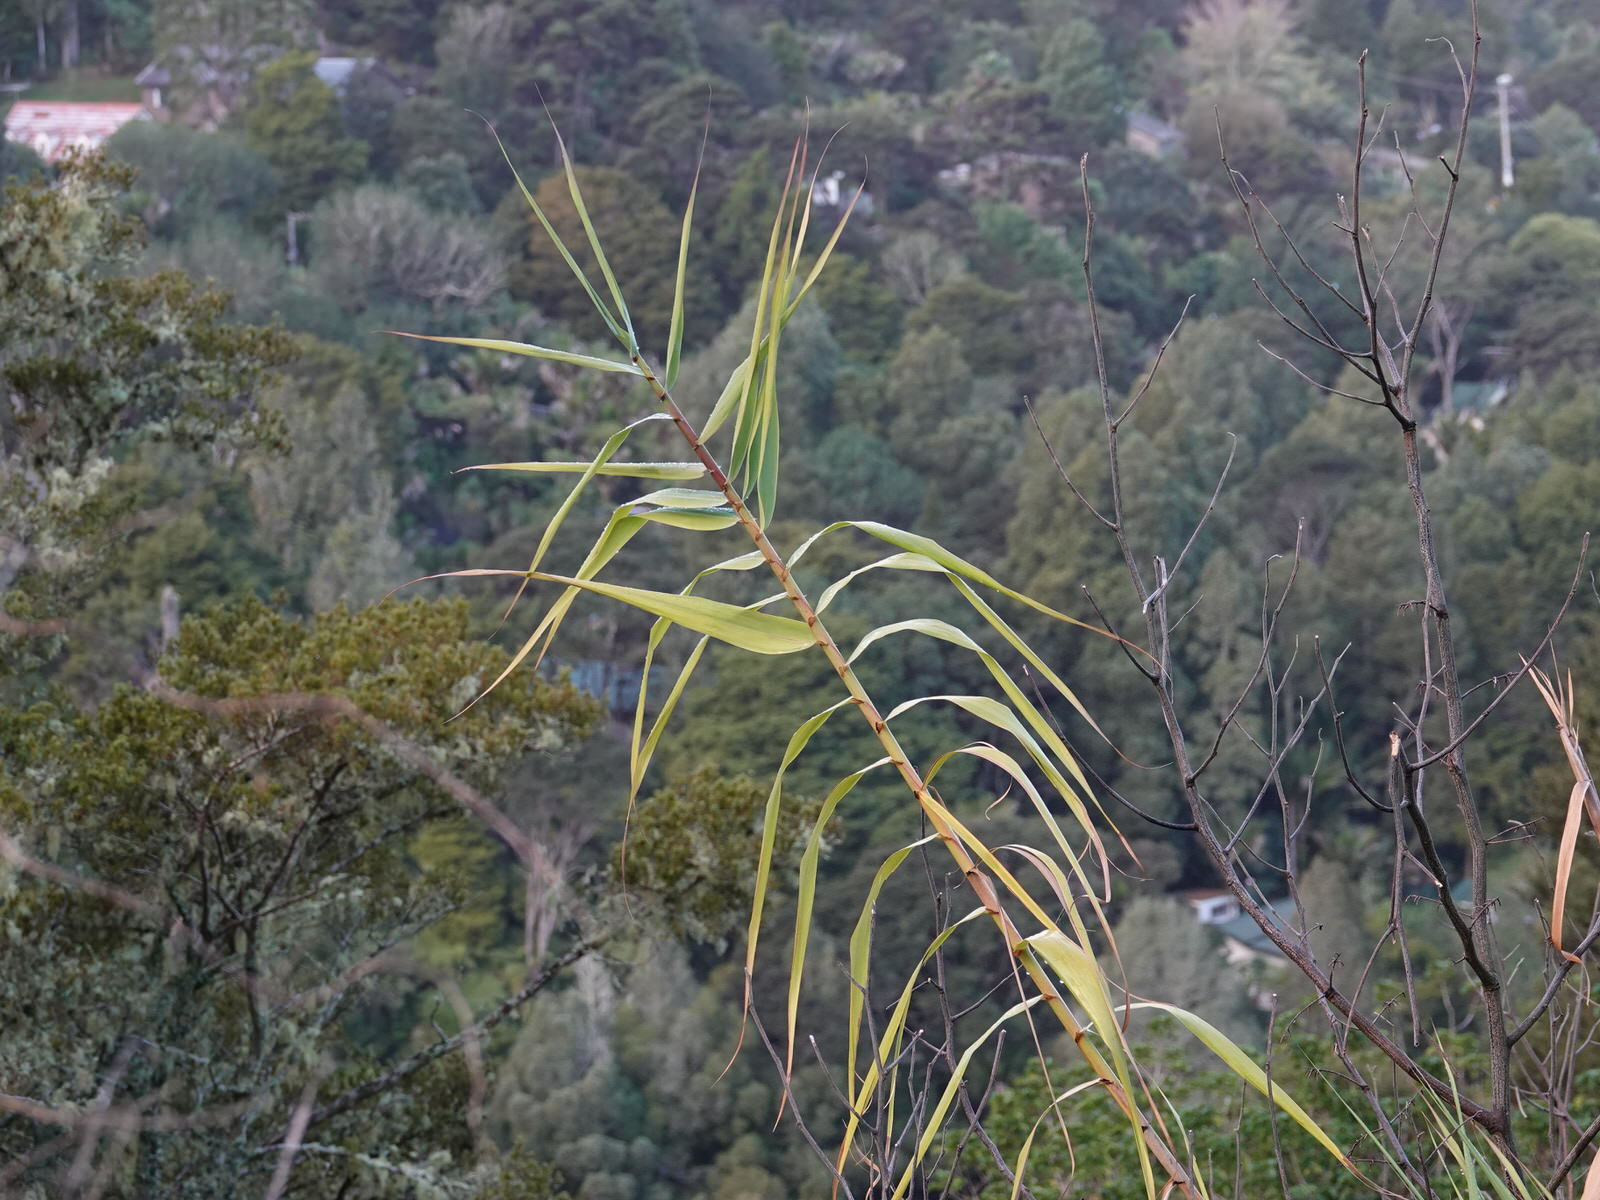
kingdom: Plantae
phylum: Tracheophyta
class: Liliopsida
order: Poales
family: Poaceae
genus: Arundo
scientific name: Arundo donax
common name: Giant reed
